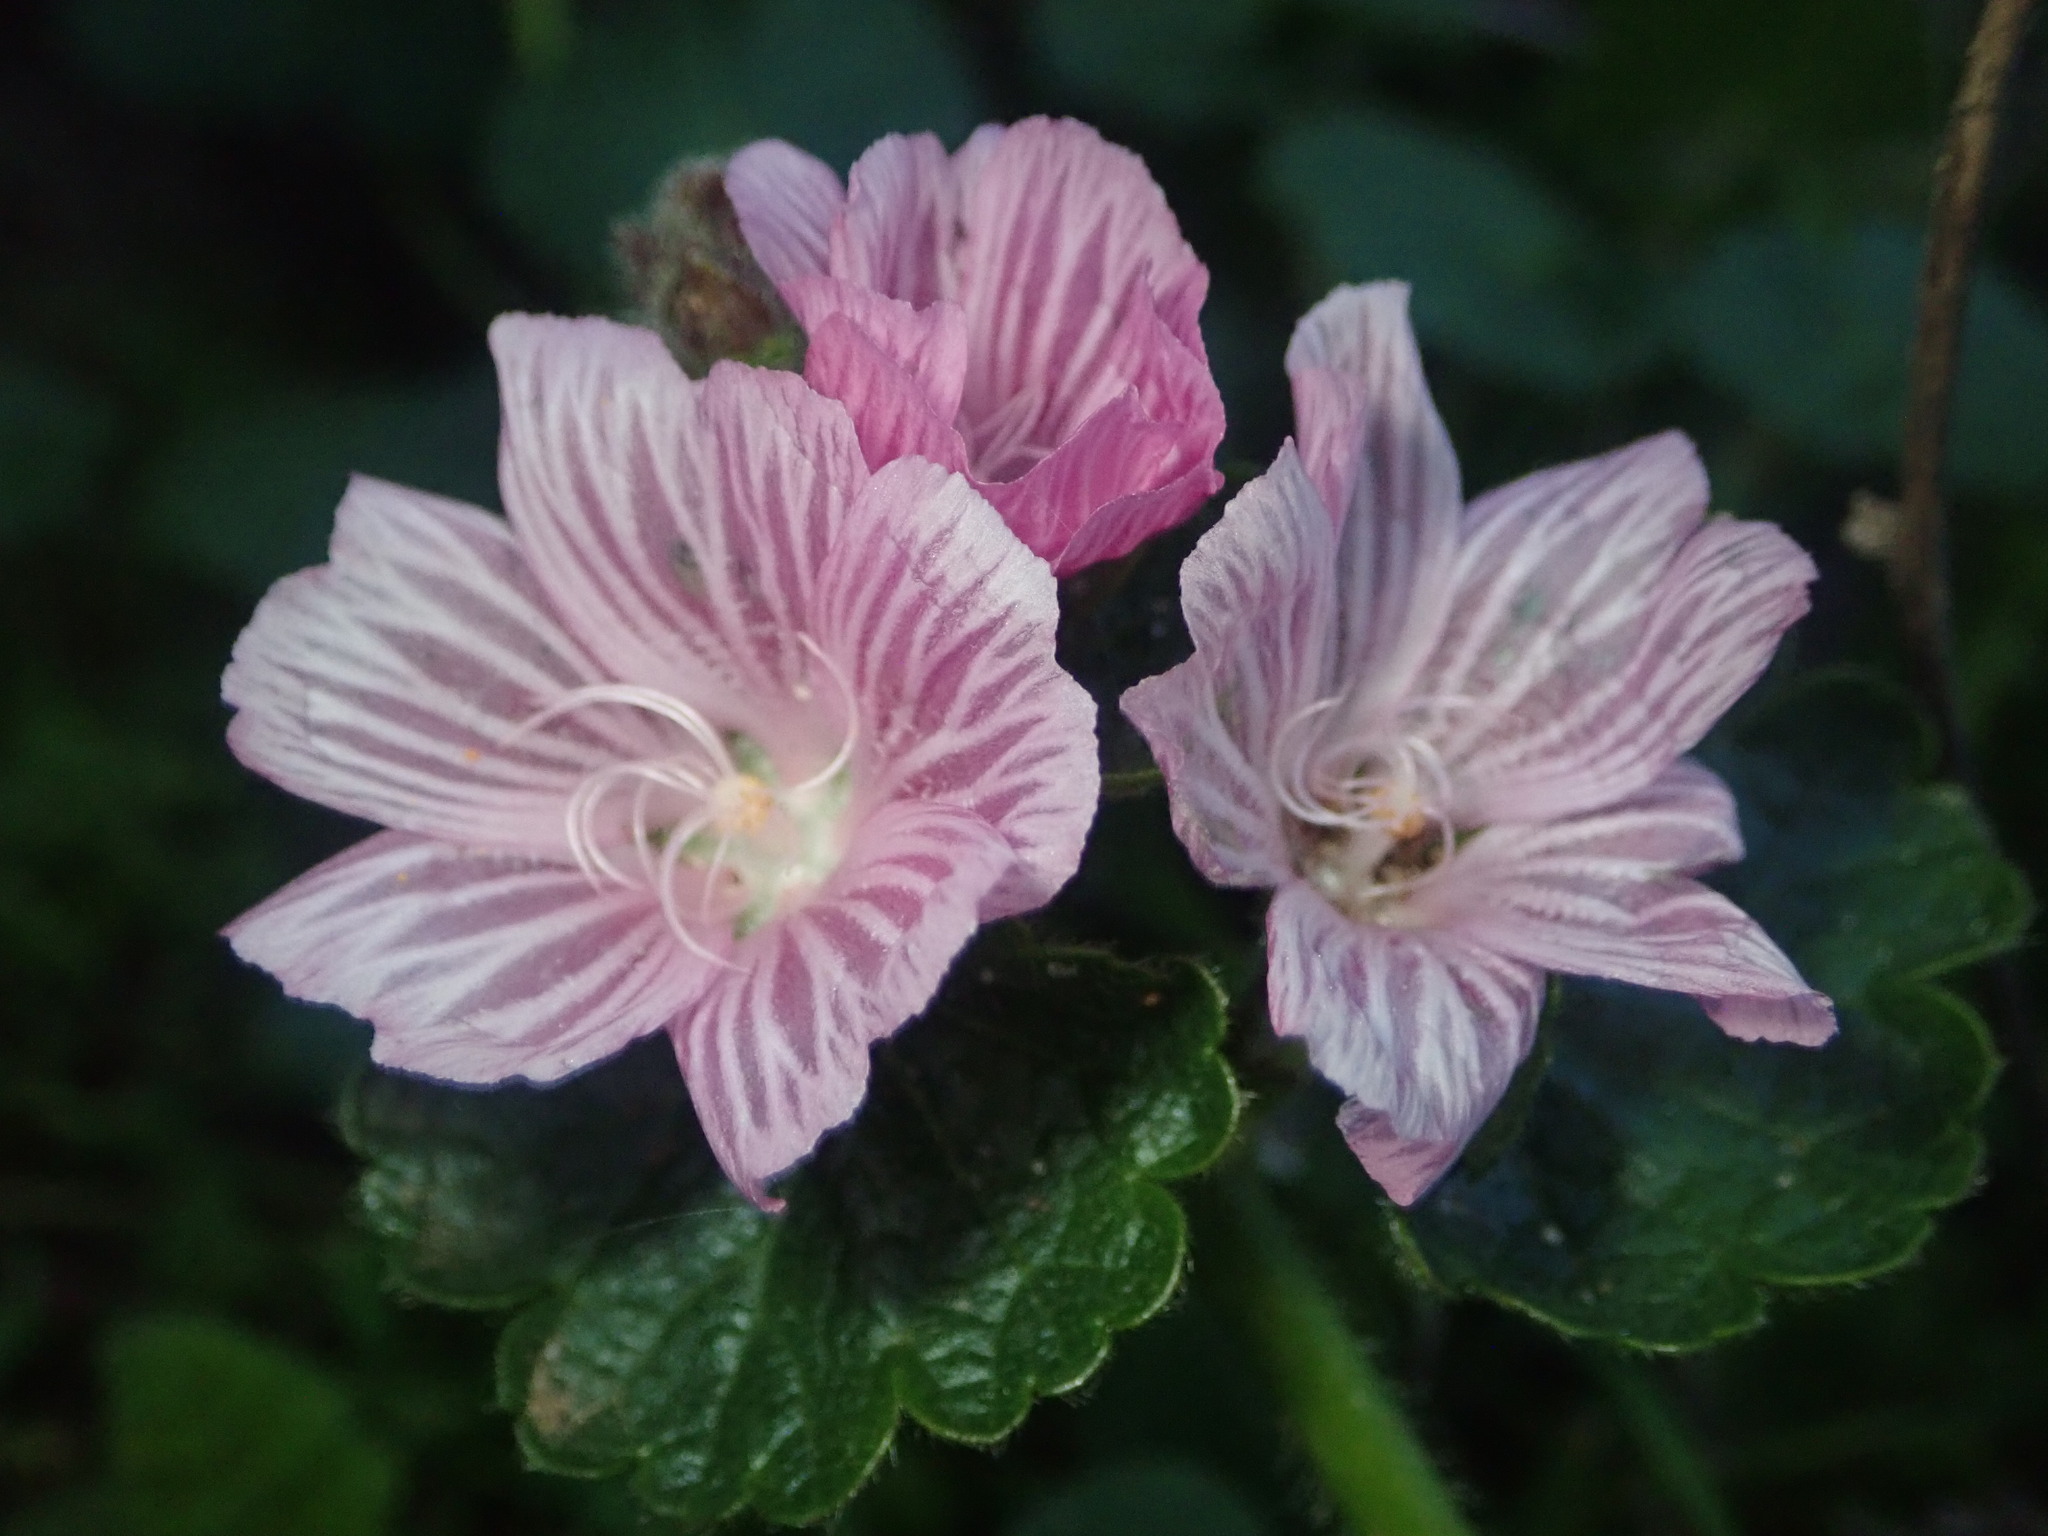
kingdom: Plantae
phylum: Tracheophyta
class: Magnoliopsida
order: Malvales
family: Malvaceae
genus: Sidalcea
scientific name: Sidalcea malviflora
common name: Greek mallow
